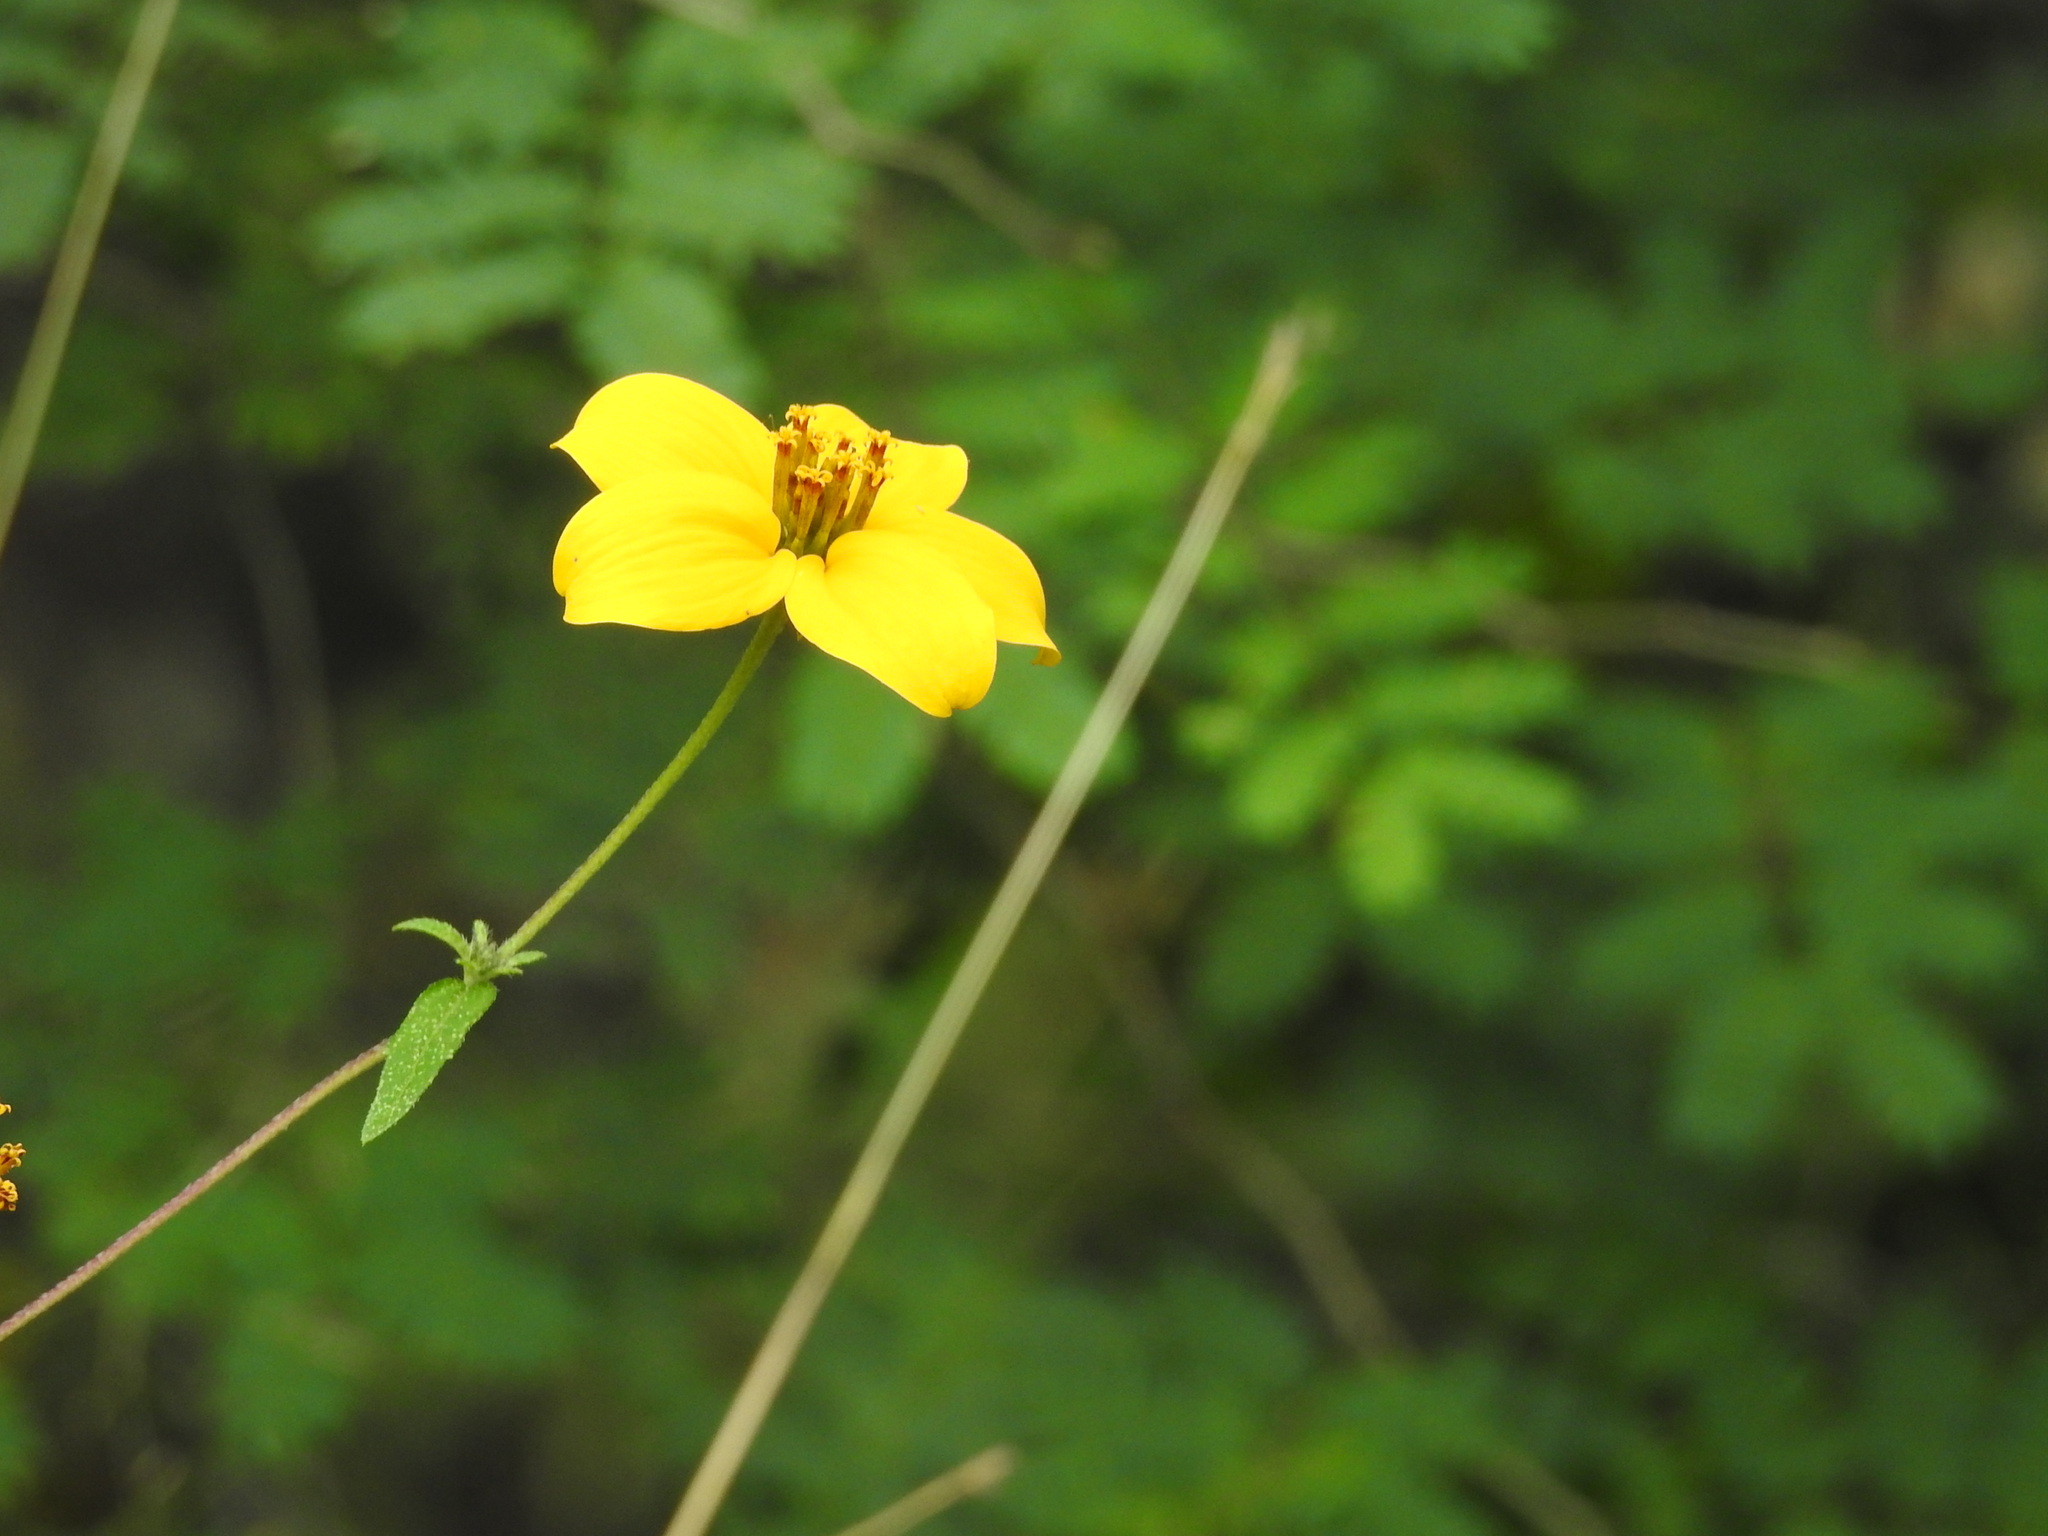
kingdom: Plantae
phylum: Tracheophyta
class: Magnoliopsida
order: Asterales
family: Asteraceae
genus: Sclerocarpus
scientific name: Sclerocarpus uniserialis
